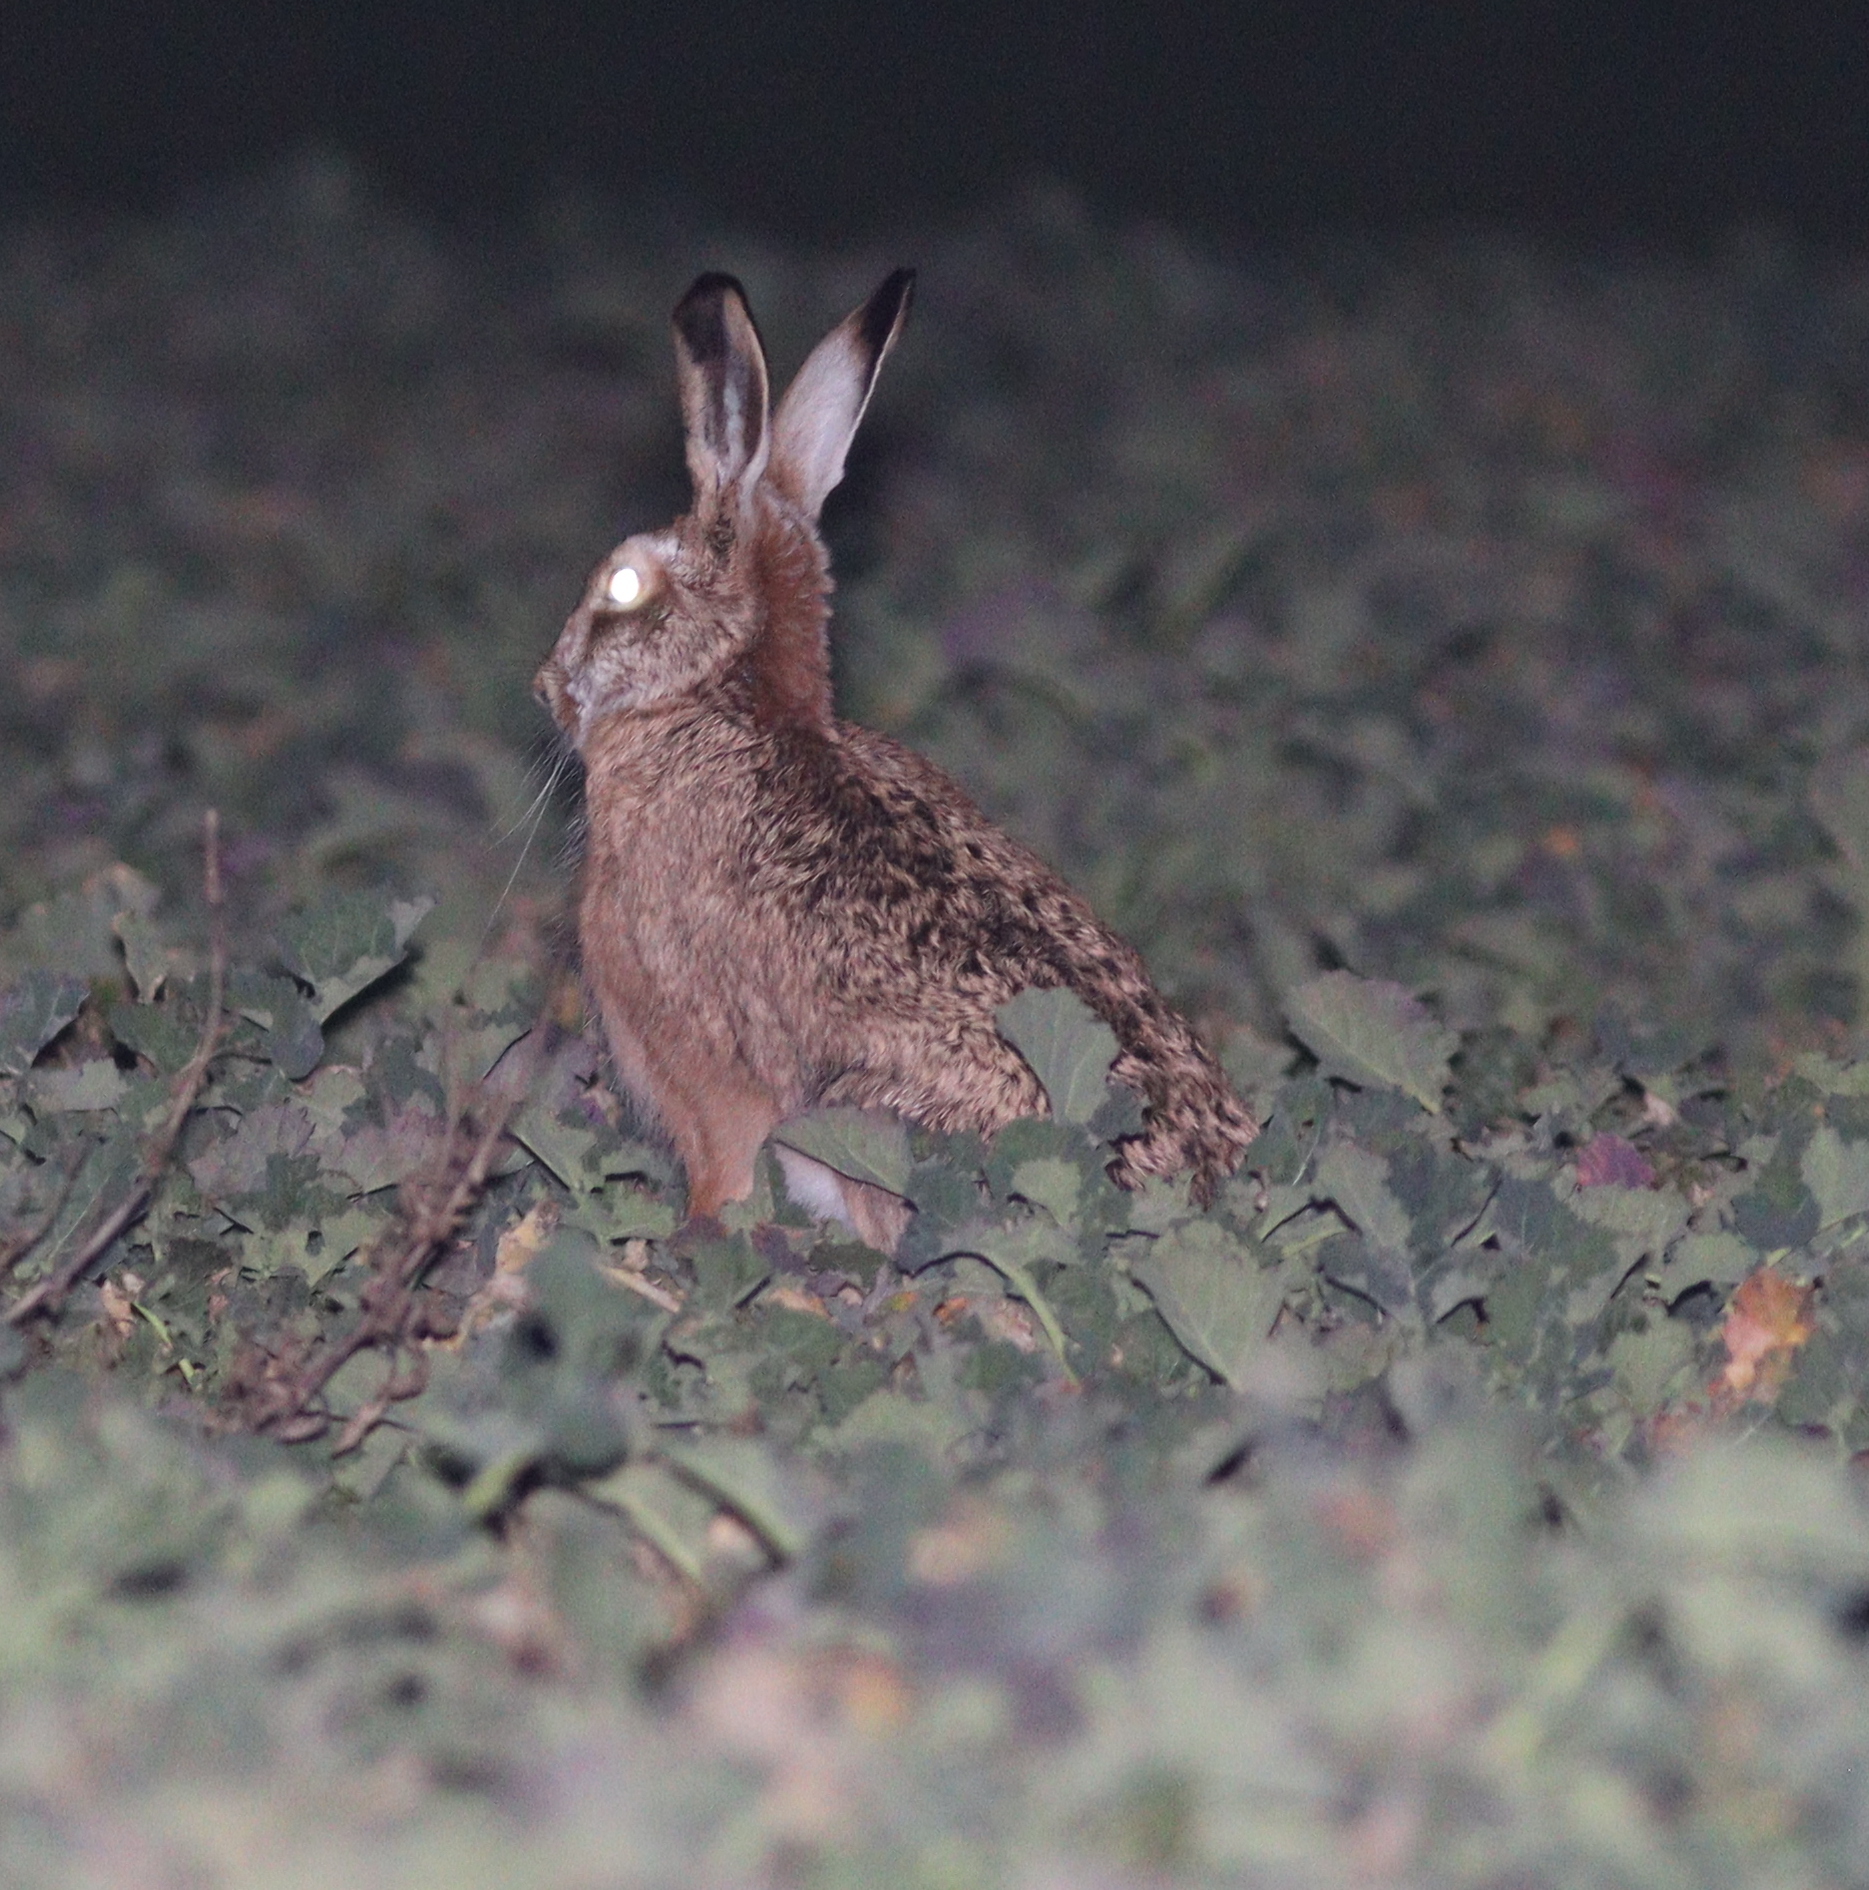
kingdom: Animalia
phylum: Chordata
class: Mammalia
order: Lagomorpha
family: Leporidae
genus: Lepus
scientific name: Lepus europaeus
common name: European hare
